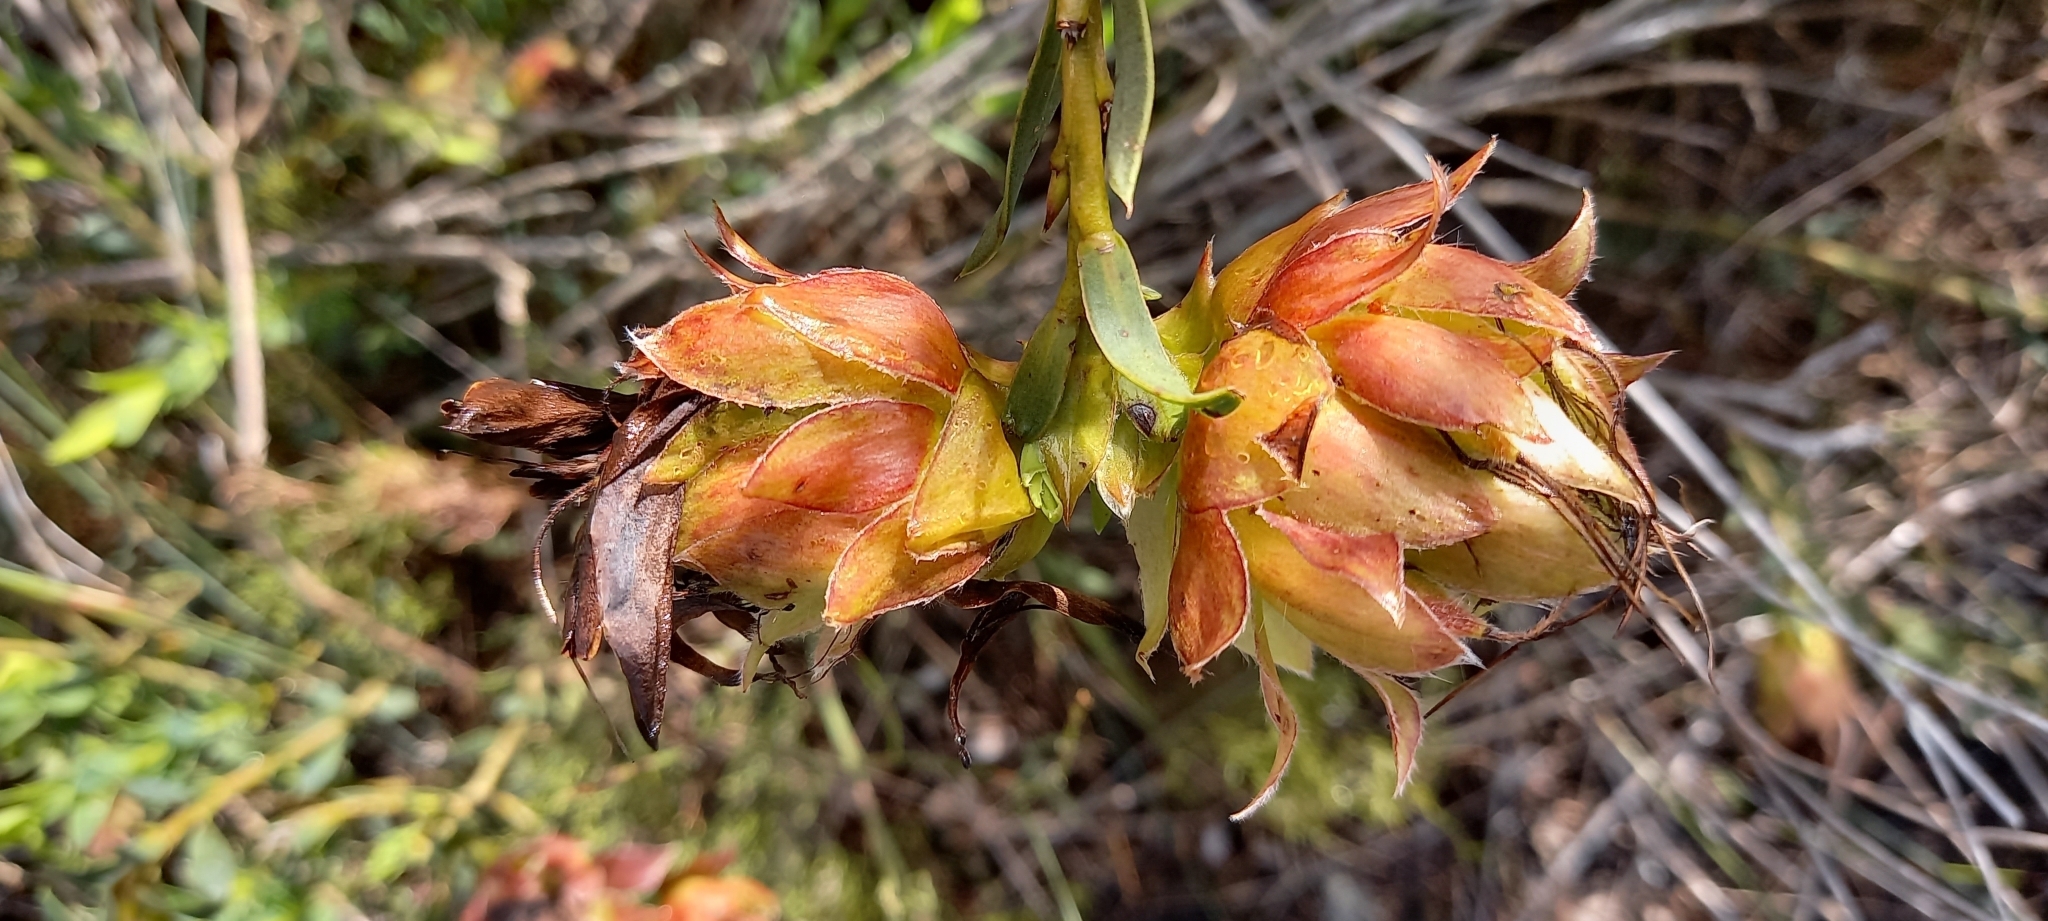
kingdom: Plantae
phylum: Tracheophyta
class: Magnoliopsida
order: Fabales
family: Fabaceae
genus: Liparia
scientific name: Liparia splendens
